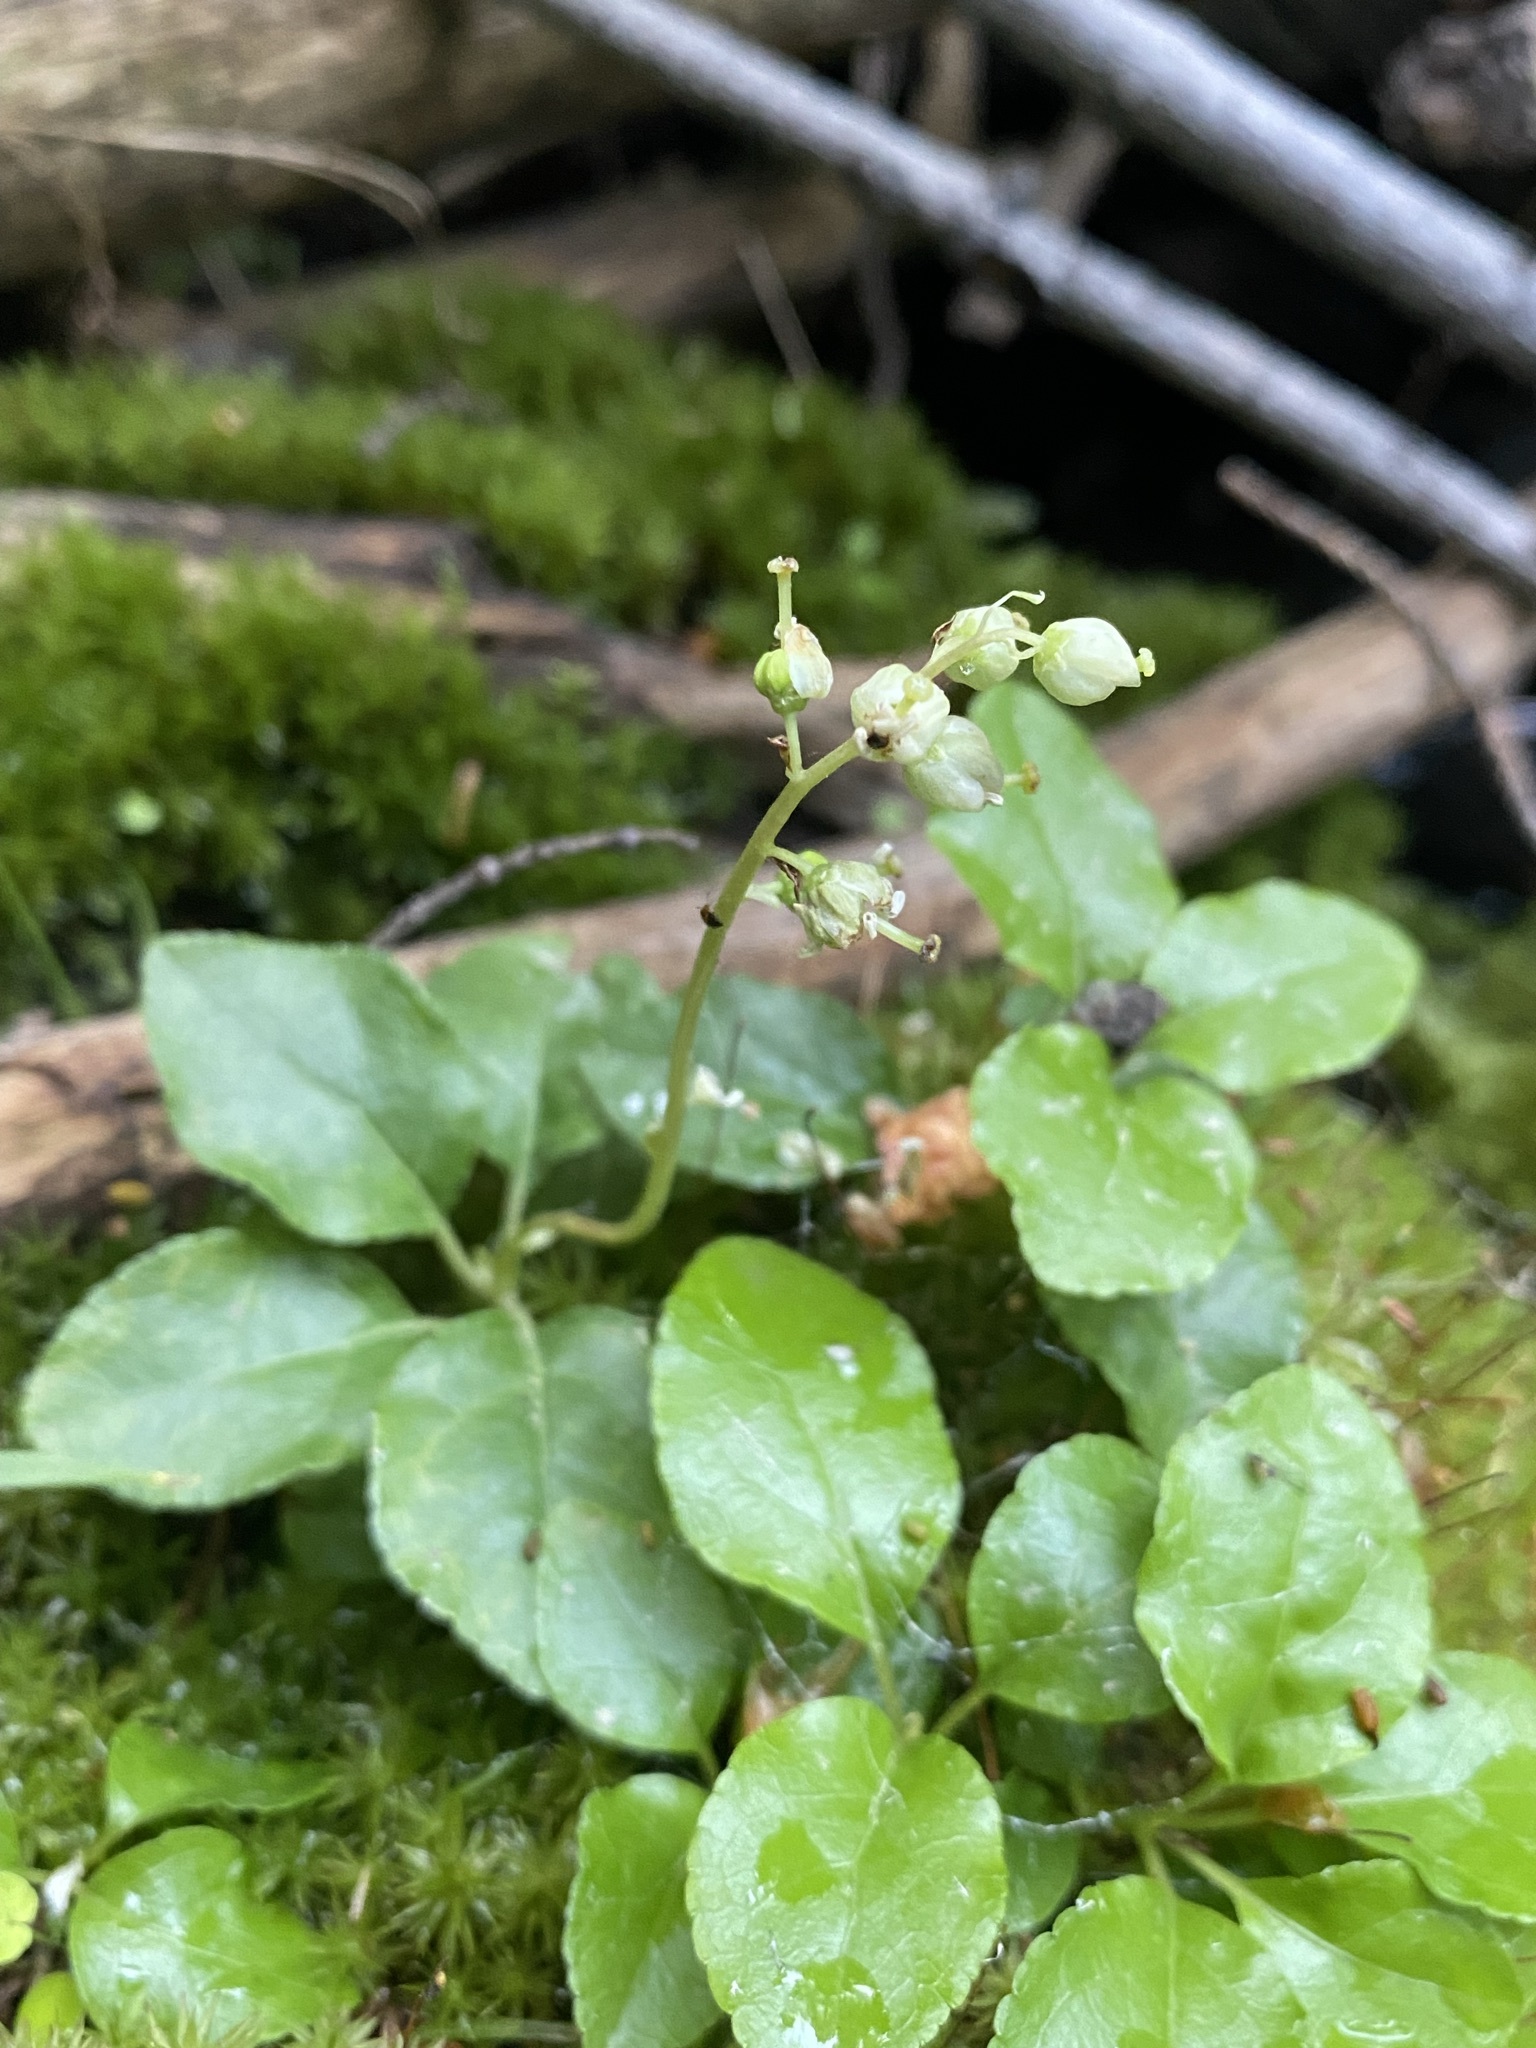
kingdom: Plantae
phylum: Tracheophyta
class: Magnoliopsida
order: Ericales
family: Ericaceae
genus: Orthilia
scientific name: Orthilia secunda
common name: One-sided orthilia
